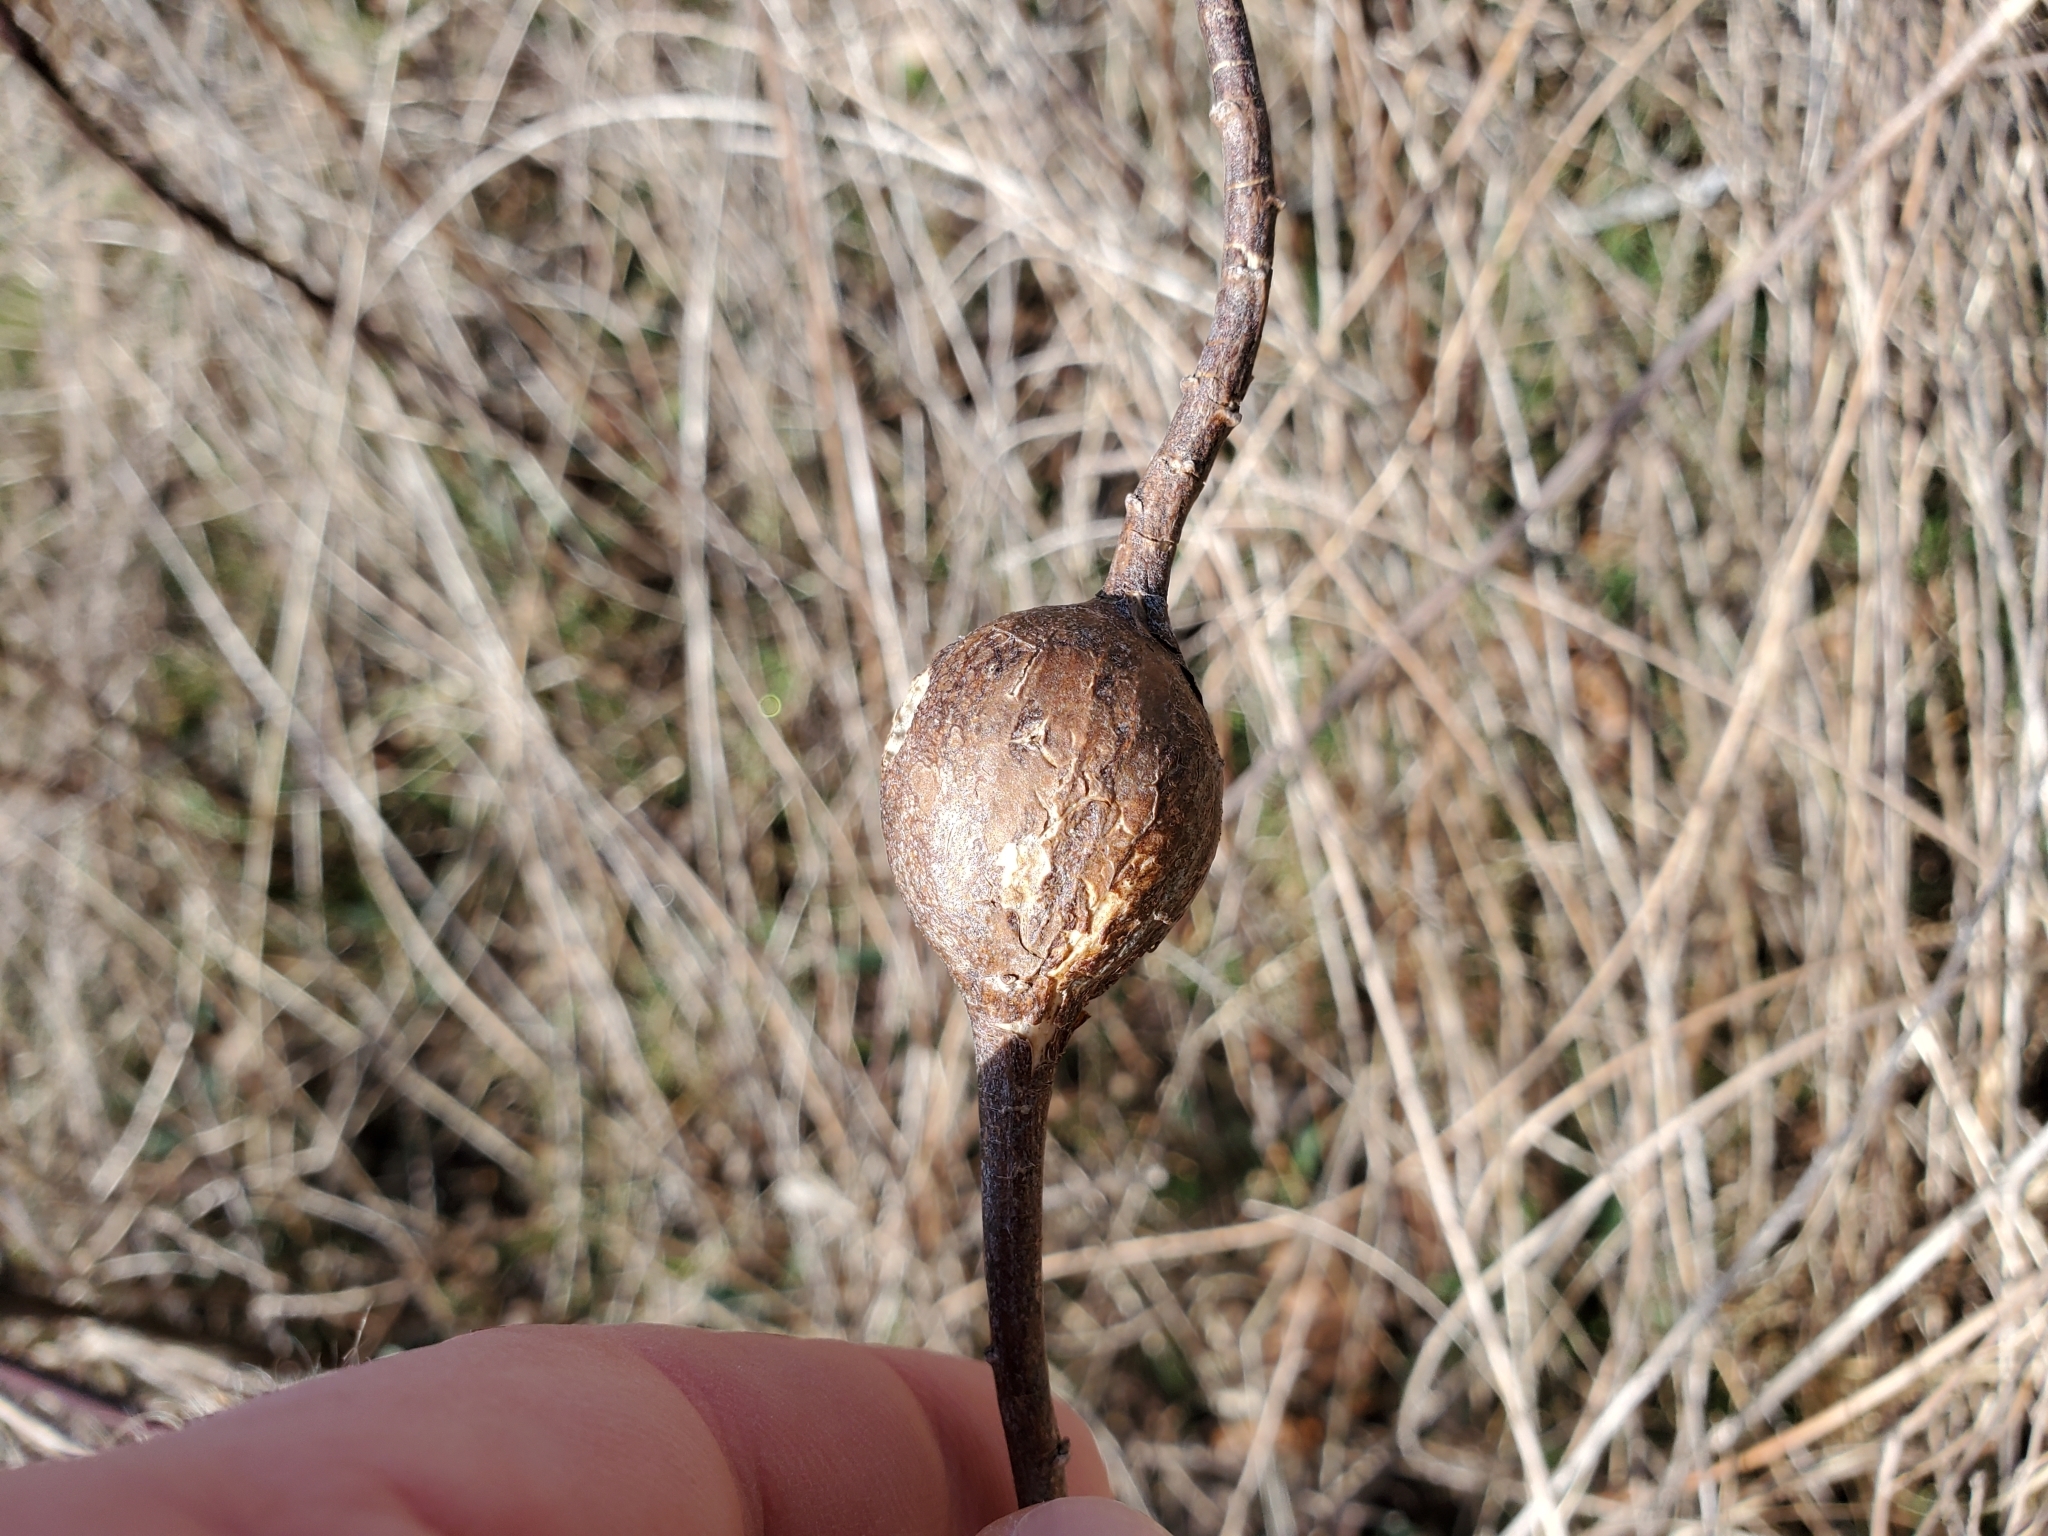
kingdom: Animalia
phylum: Arthropoda
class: Insecta
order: Diptera
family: Tephritidae
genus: Eurosta
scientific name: Eurosta solidaginis
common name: Goldenrod gall fly
